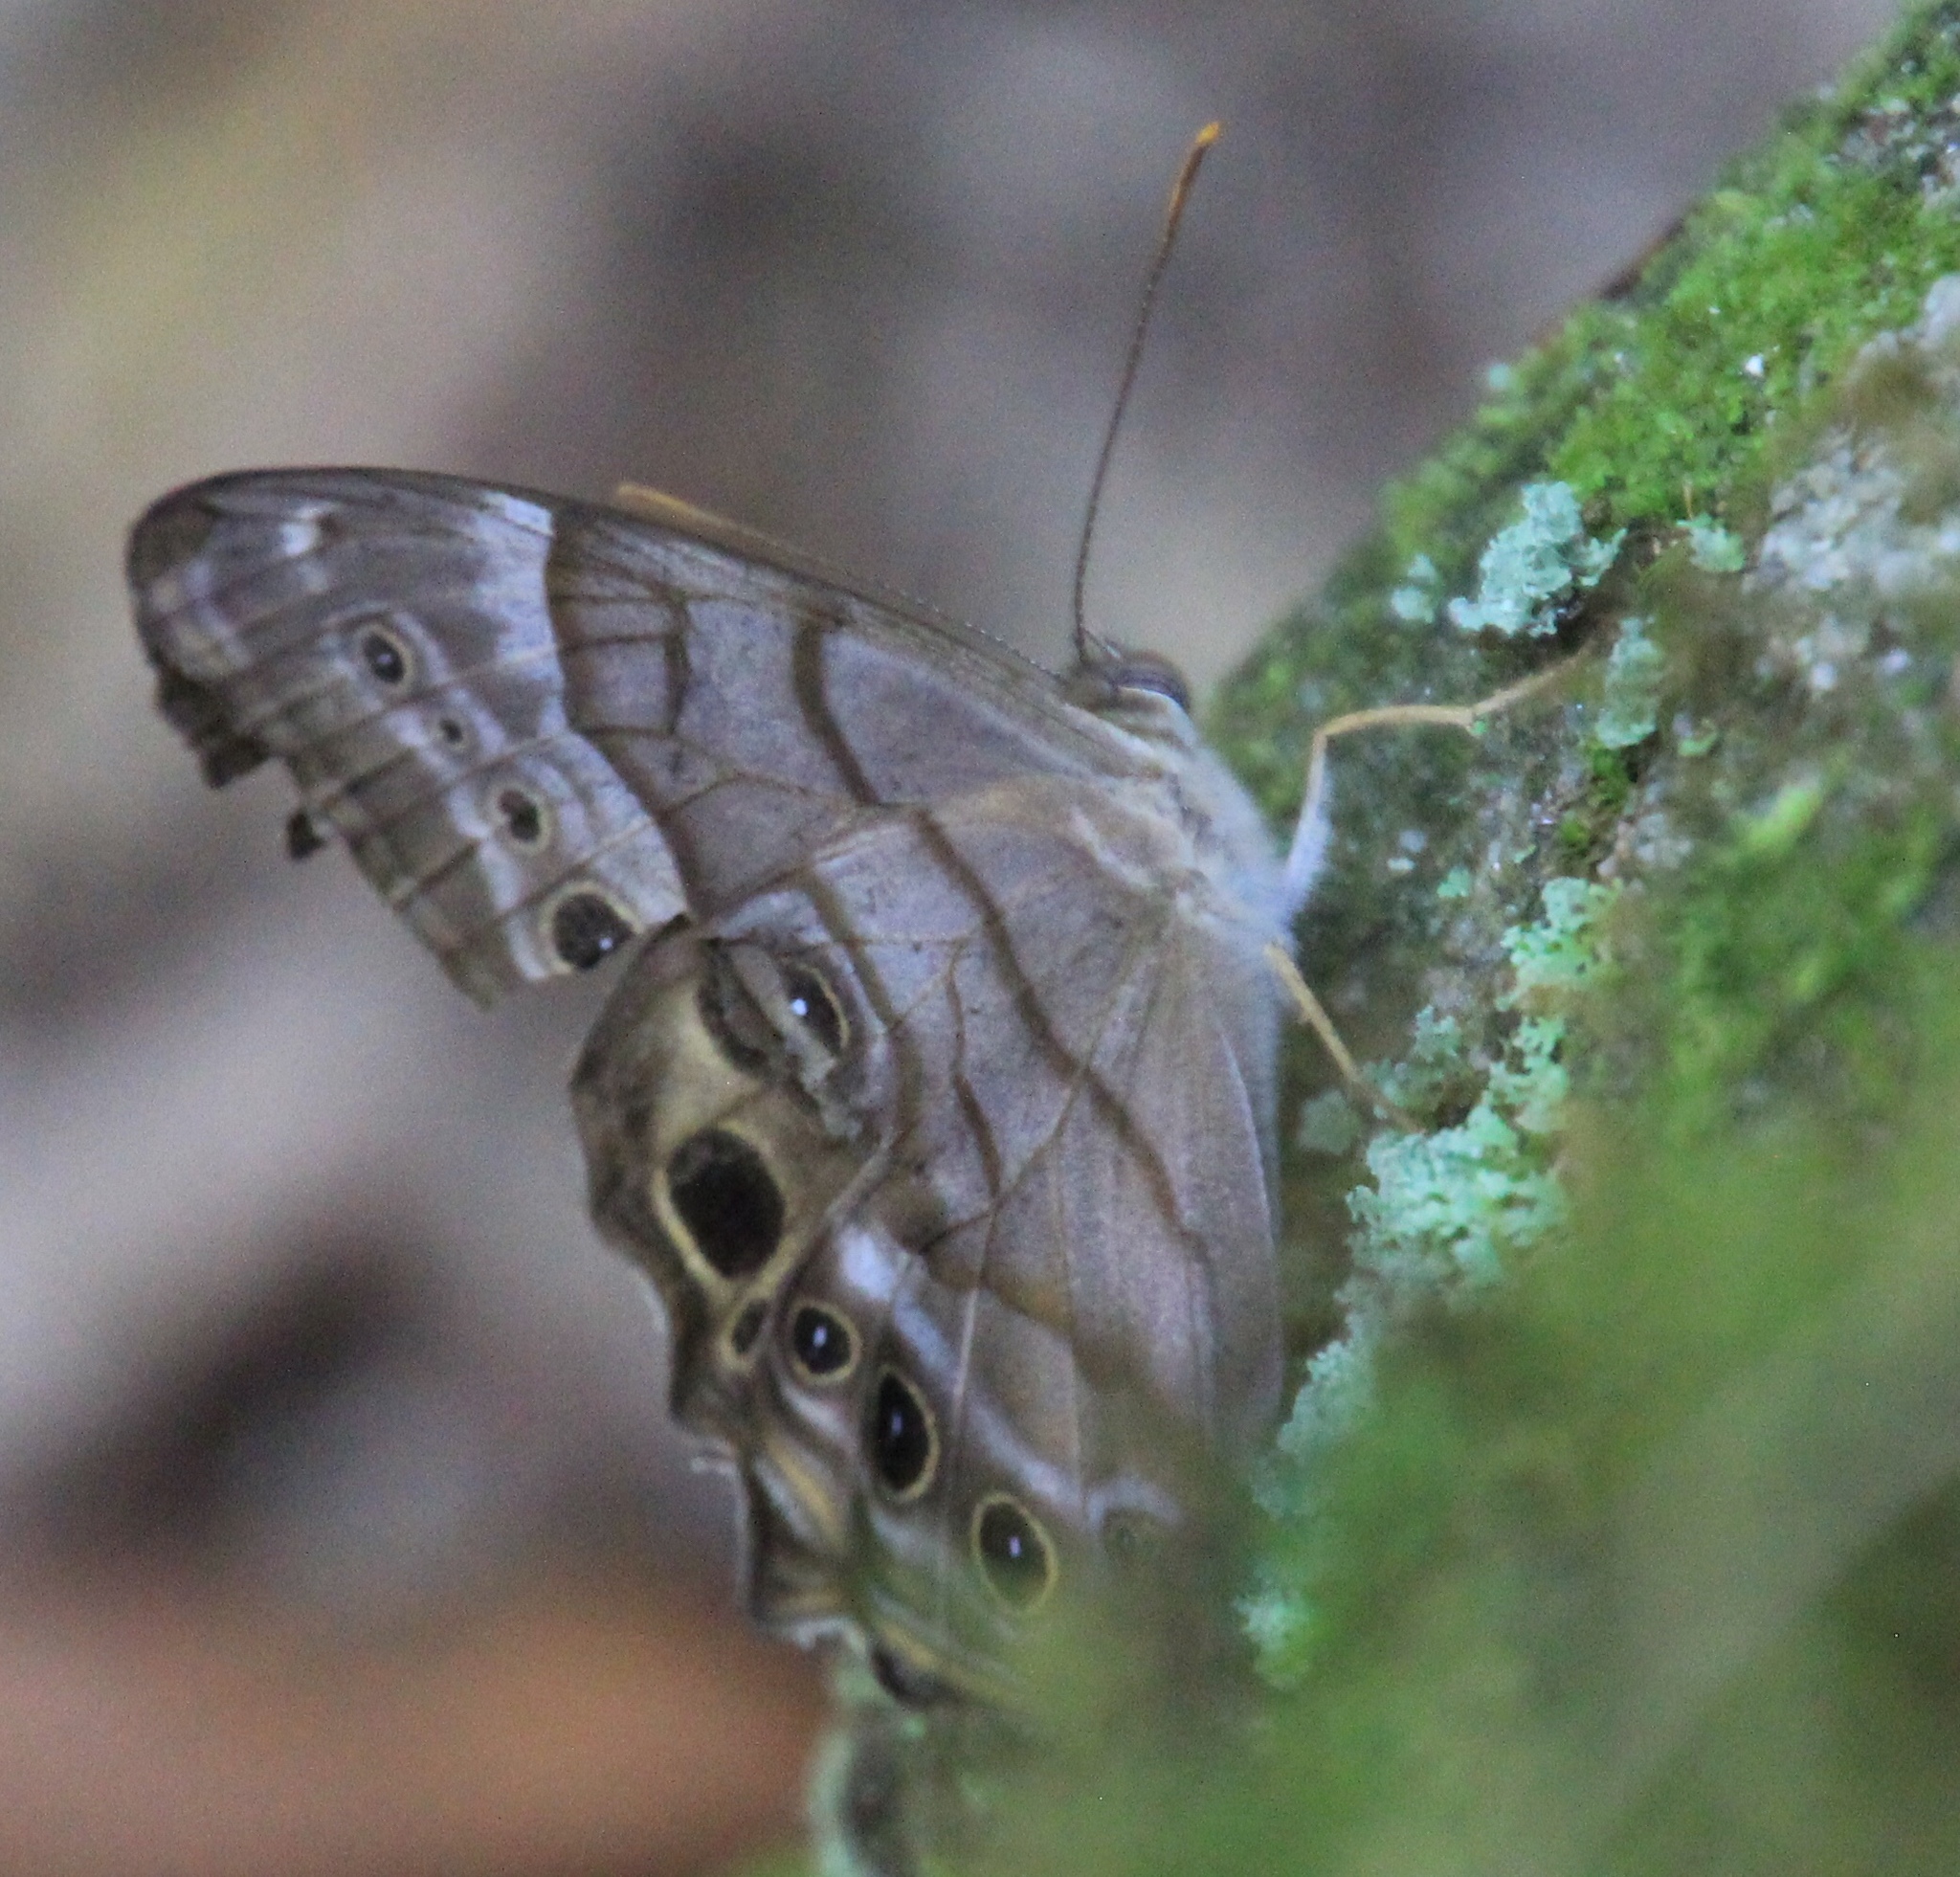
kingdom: Animalia
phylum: Arthropoda
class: Insecta
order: Lepidoptera
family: Nymphalidae
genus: Enodia
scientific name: Enodia portlandia
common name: Southern pearly-eye
